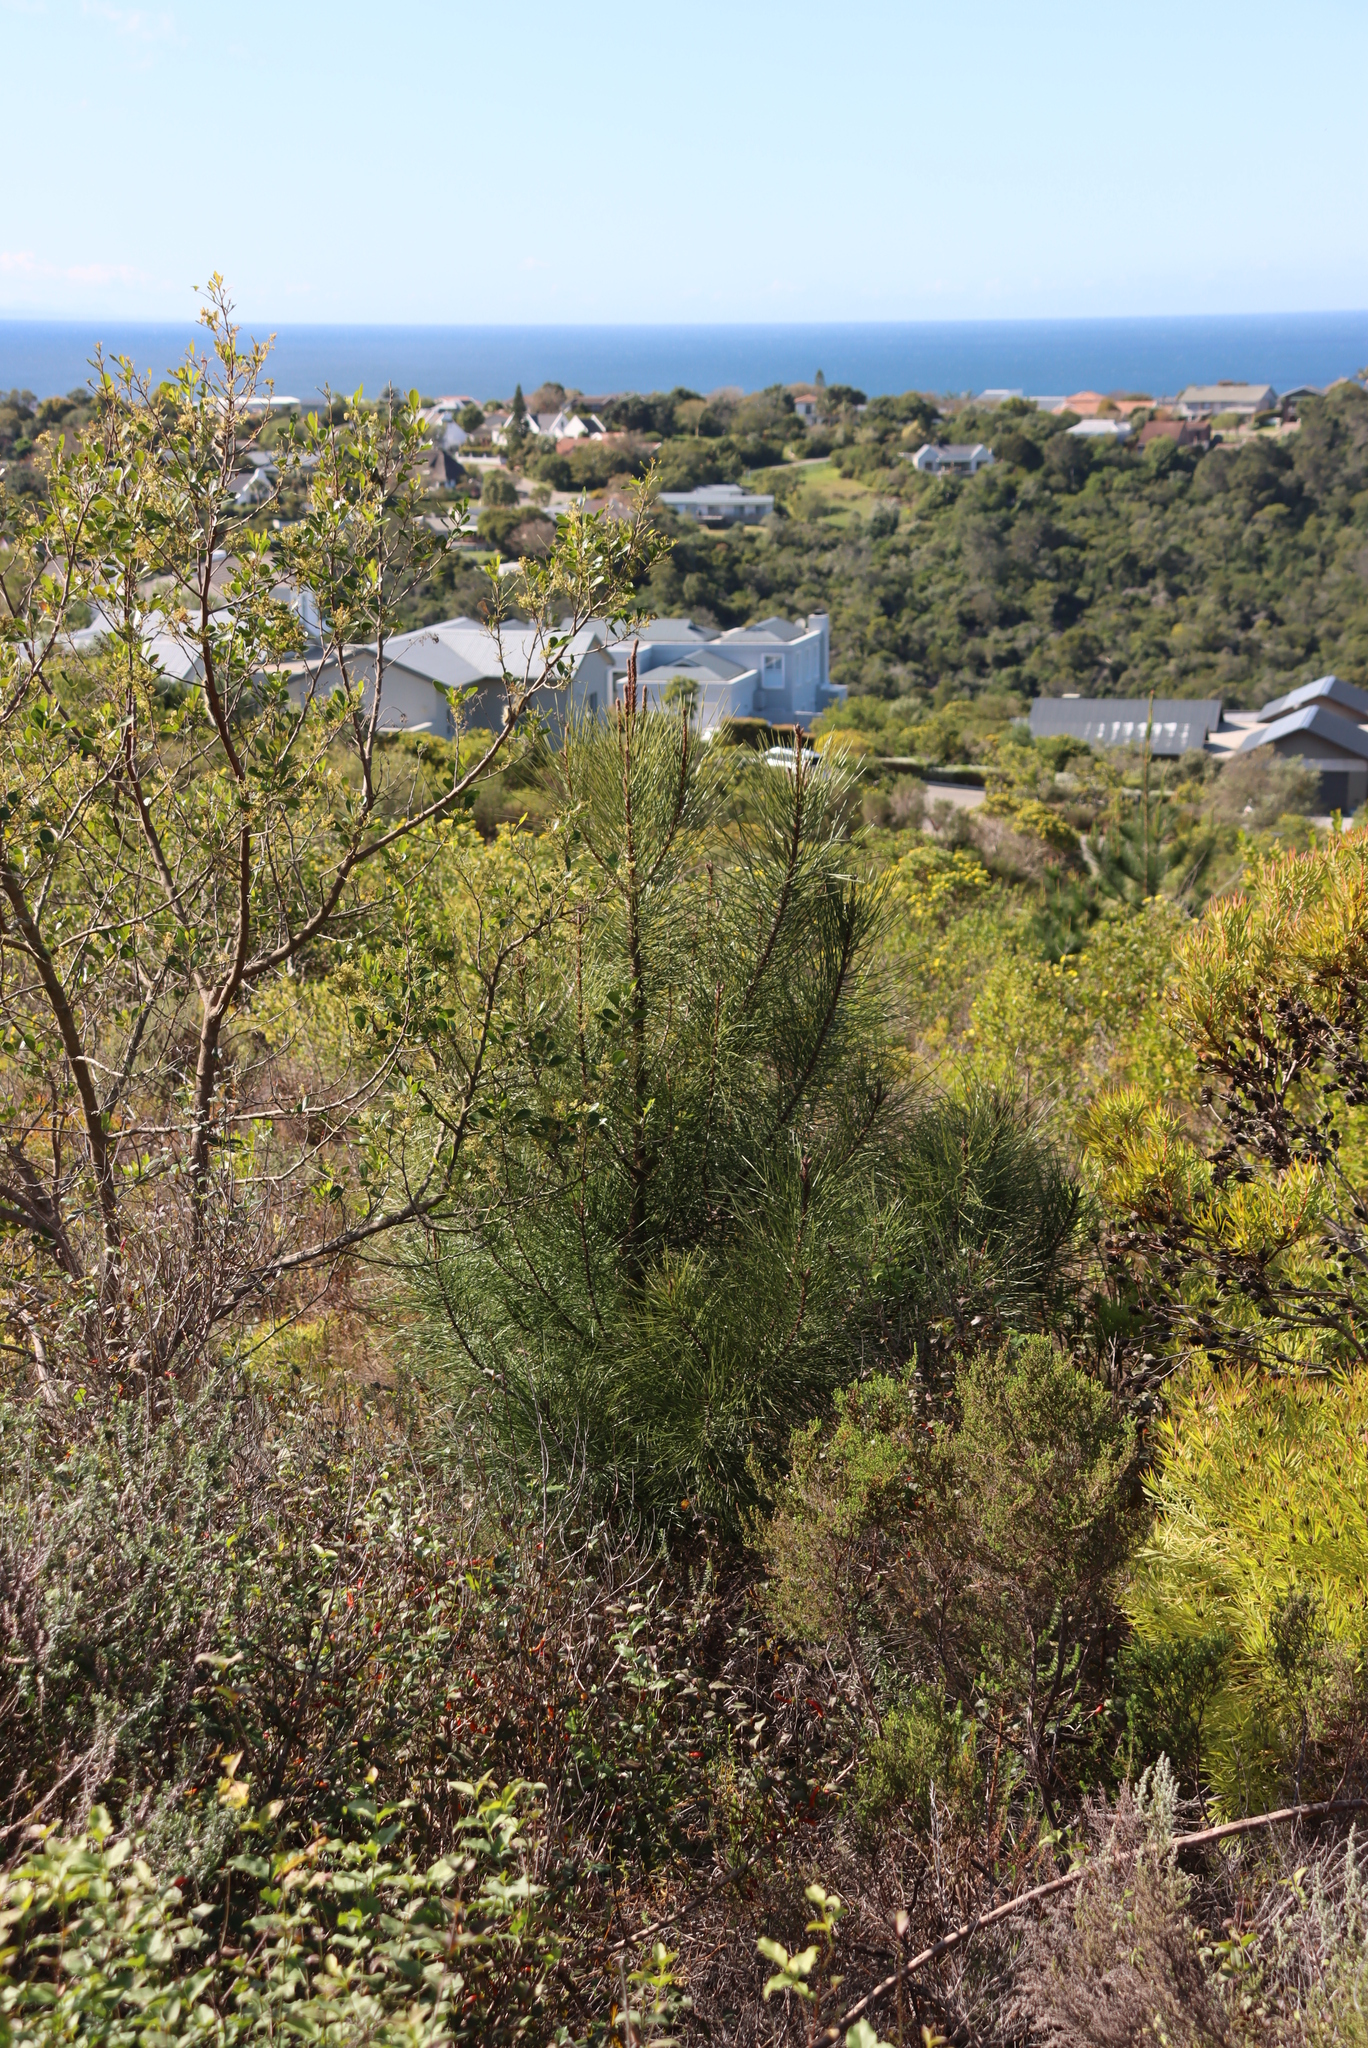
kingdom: Plantae
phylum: Tracheophyta
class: Pinopsida
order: Pinales
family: Pinaceae
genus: Pinus
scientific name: Pinus pinaster
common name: Maritime pine
